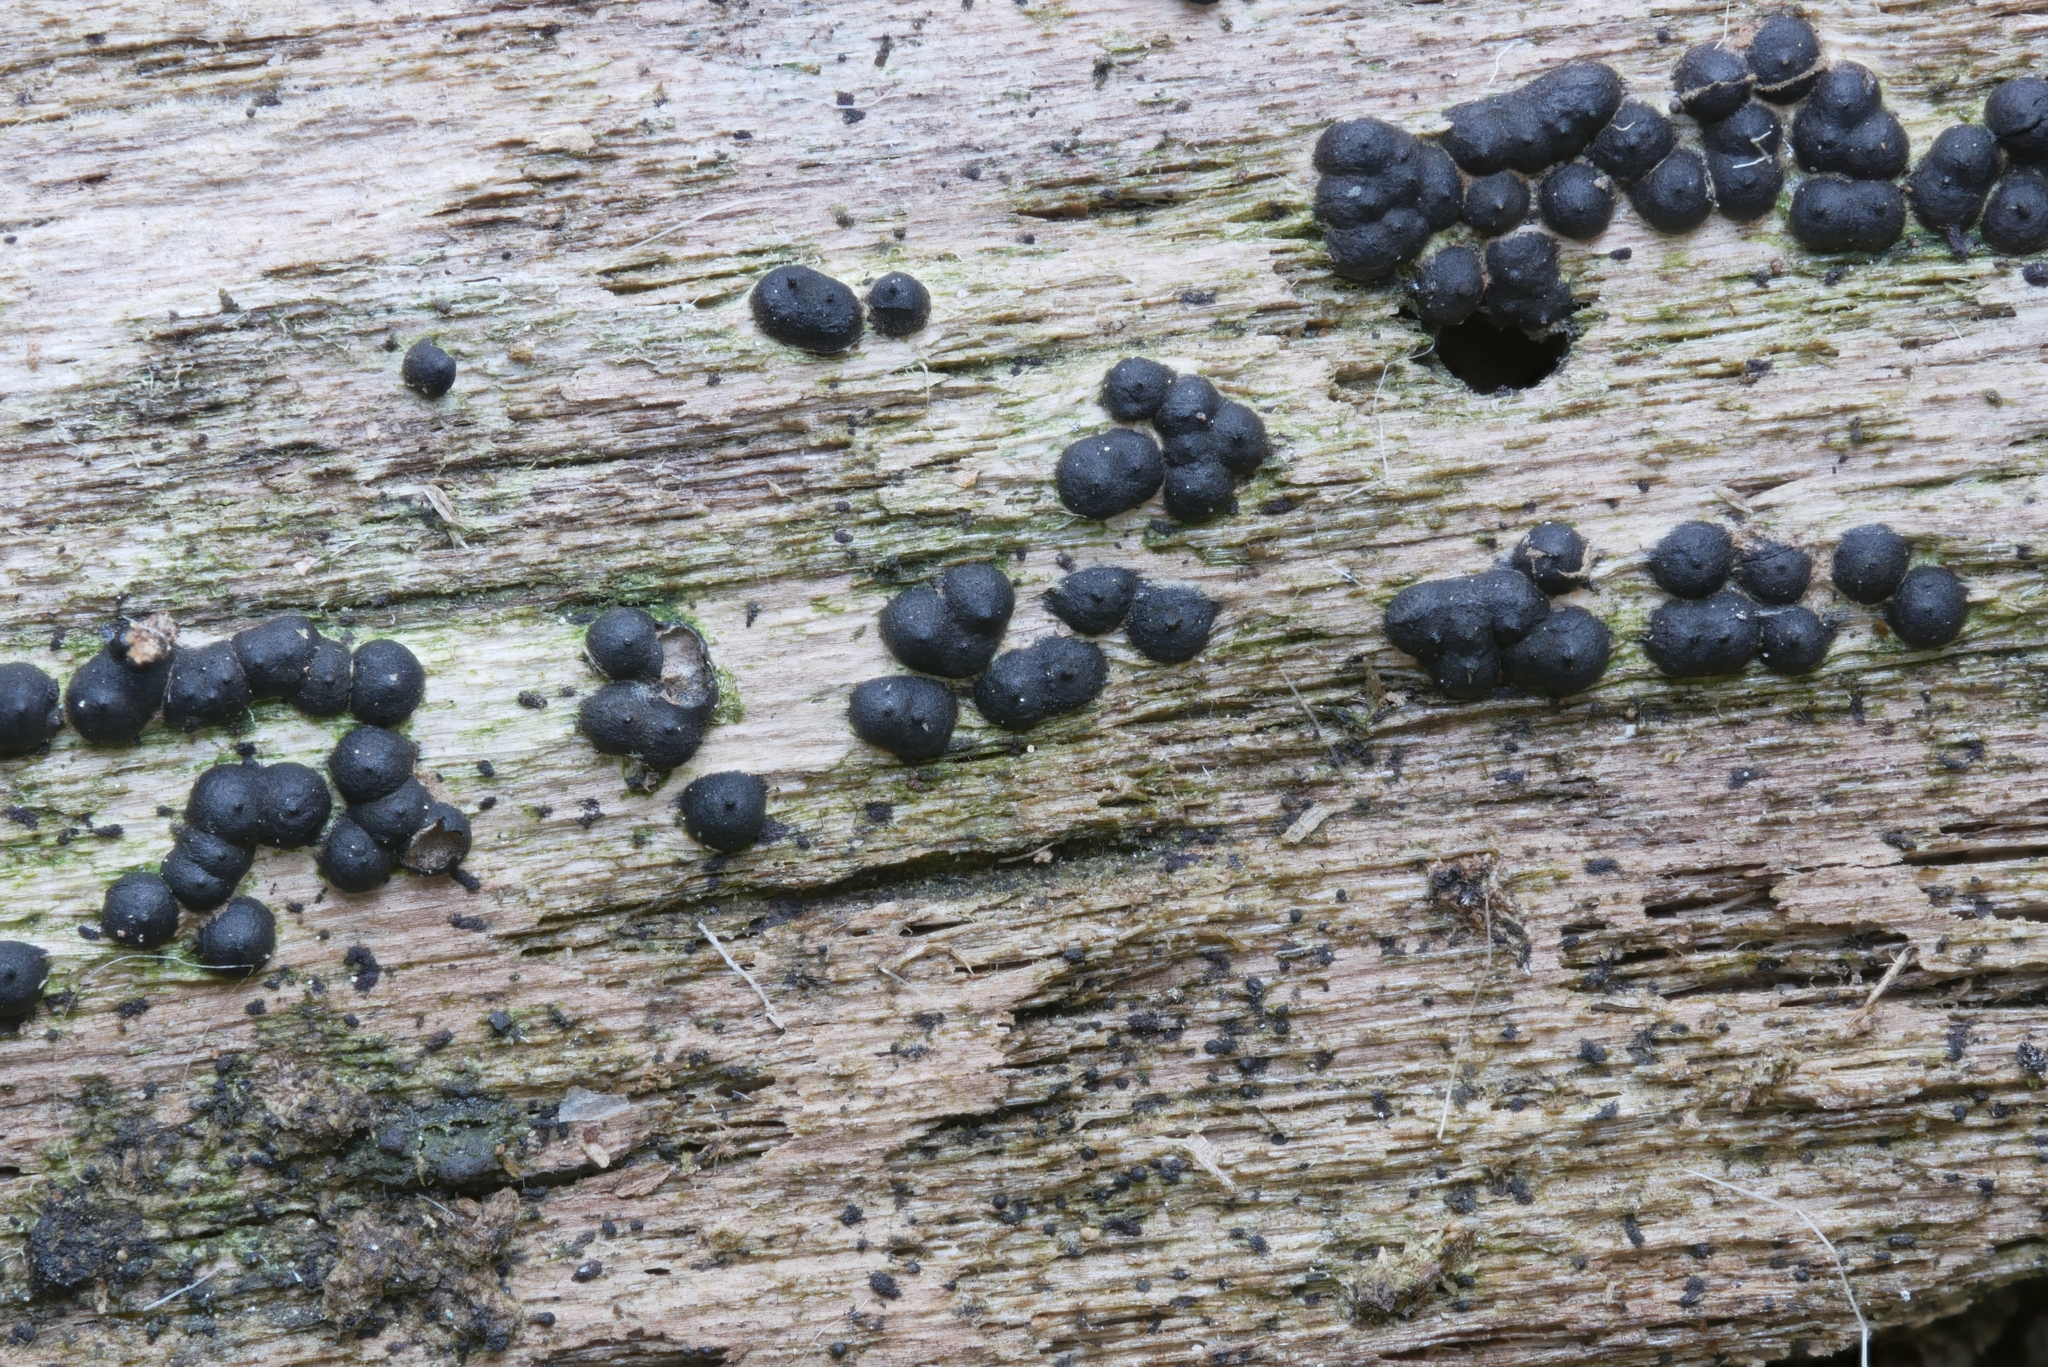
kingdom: Fungi
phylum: Ascomycota
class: Sordariomycetes
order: Xylariales
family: Xylariaceae
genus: Rosellinia
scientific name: Rosellinia subiculata
